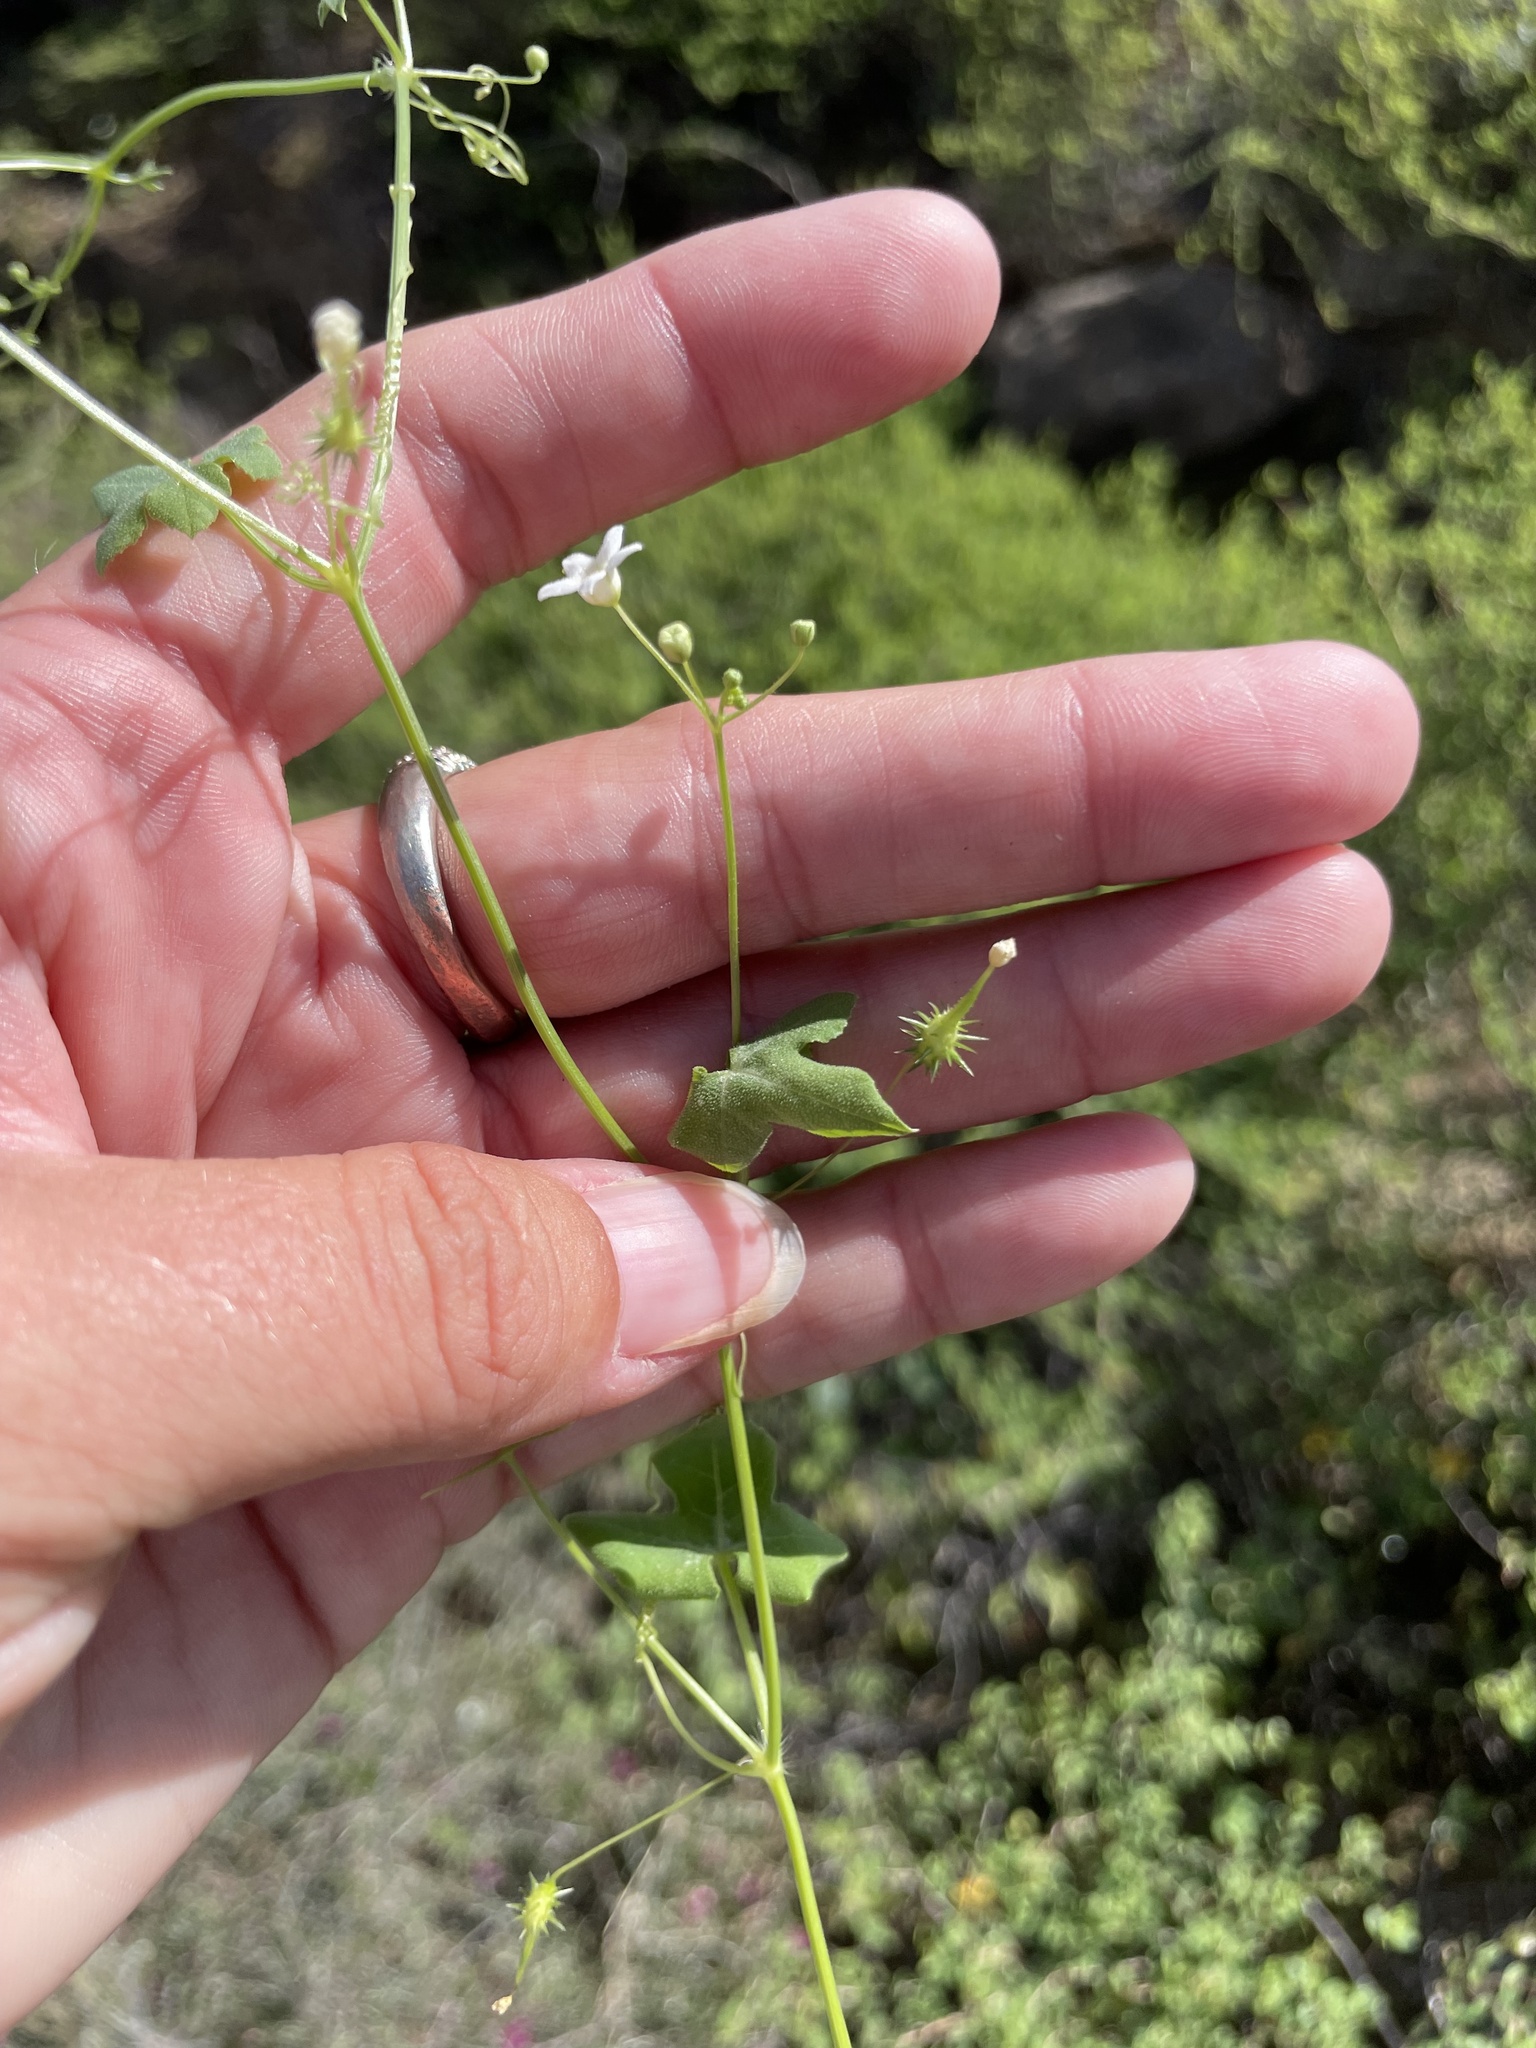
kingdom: Plantae
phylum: Tracheophyta
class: Magnoliopsida
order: Cucurbitales
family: Cucurbitaceae
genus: Echinopepon
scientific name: Echinopepon minimus
